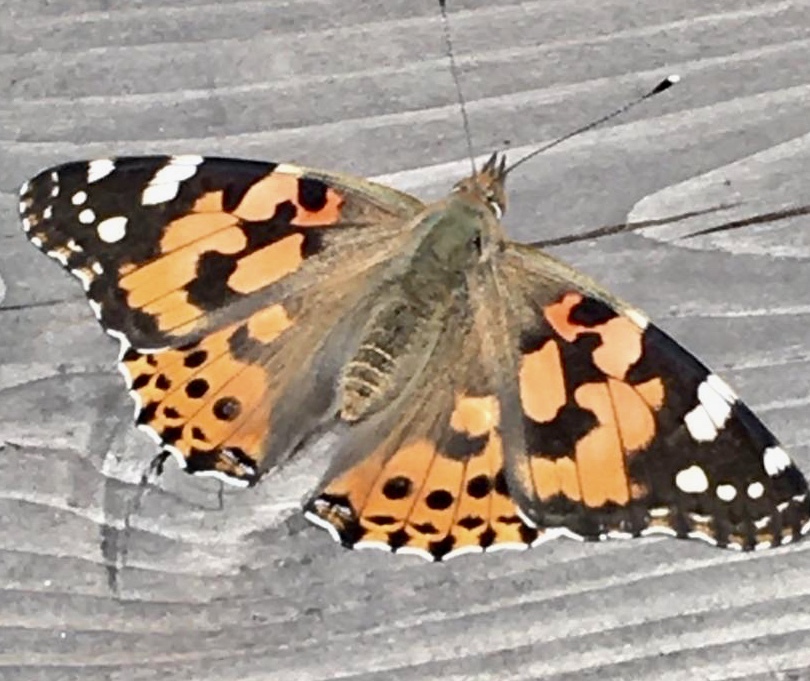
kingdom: Animalia
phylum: Arthropoda
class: Insecta
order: Lepidoptera
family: Nymphalidae
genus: Vanessa
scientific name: Vanessa cardui
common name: Painted lady
